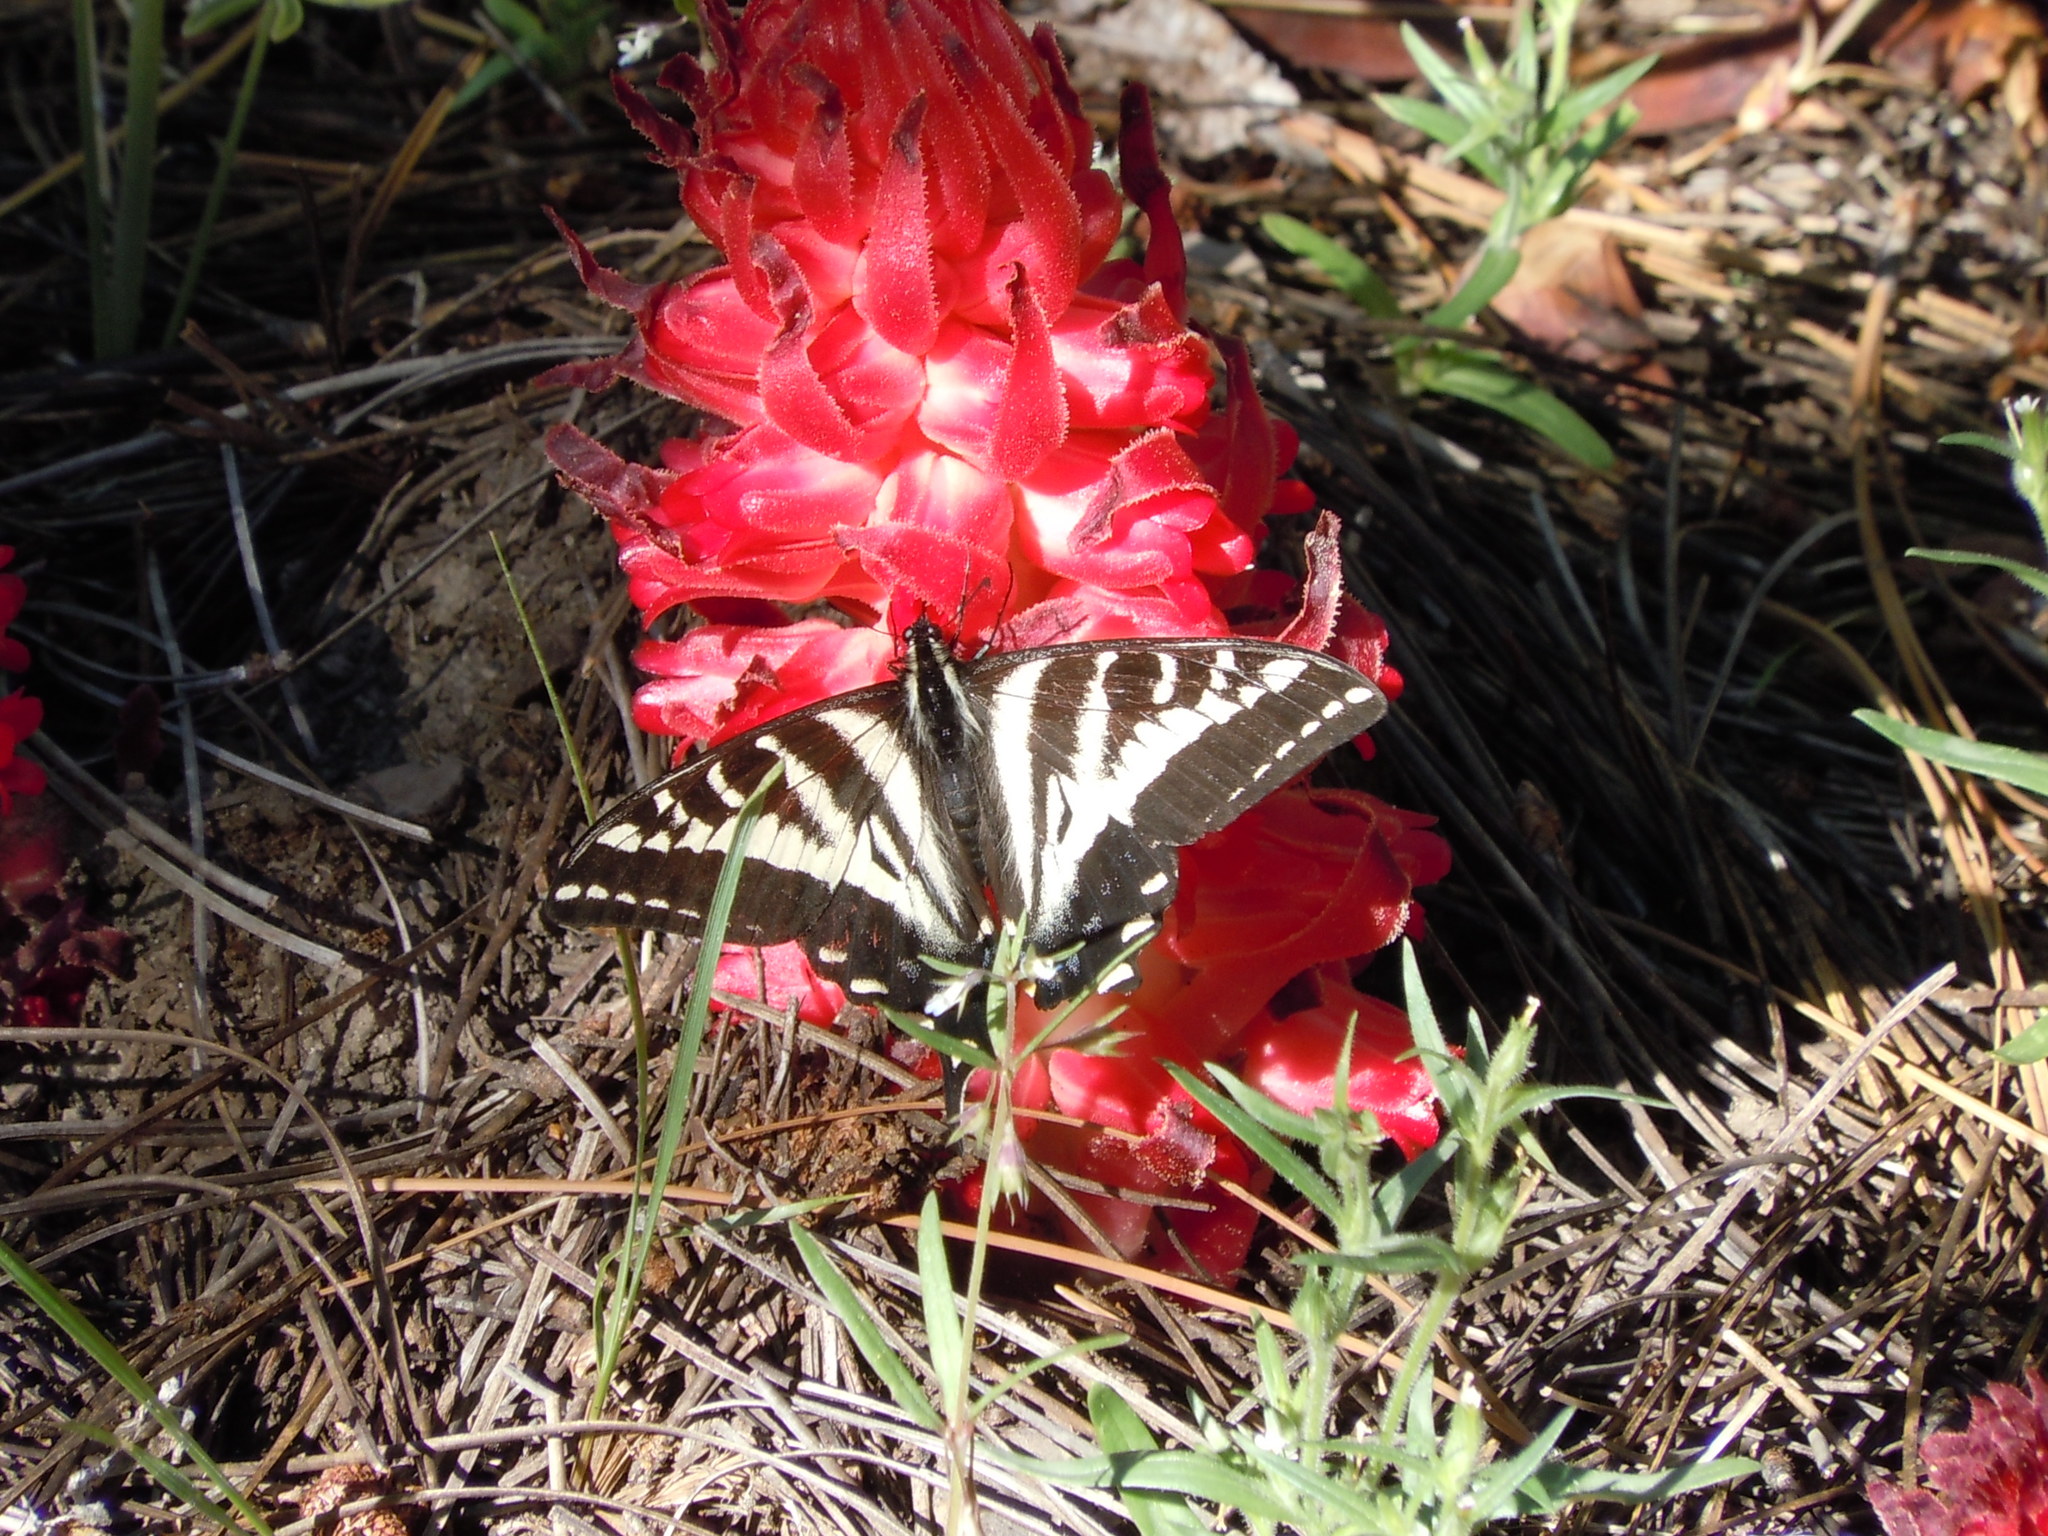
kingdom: Animalia
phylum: Arthropoda
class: Insecta
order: Lepidoptera
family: Papilionidae
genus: Papilio
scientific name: Papilio eurymedon
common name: Pale tiger swallowtail
